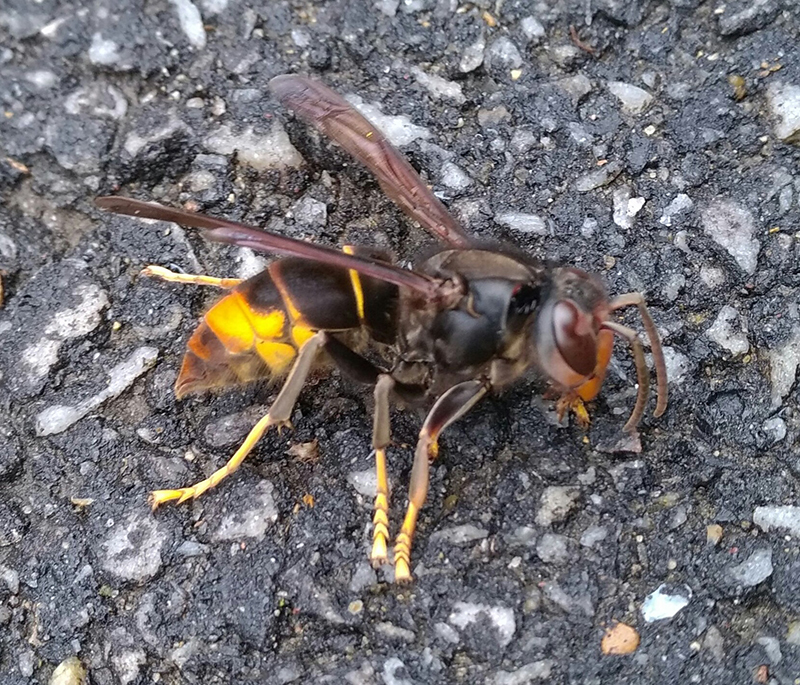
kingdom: Animalia
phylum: Arthropoda
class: Insecta
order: Hymenoptera
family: Vespidae
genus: Vespa
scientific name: Vespa velutina
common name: Asian hornet
